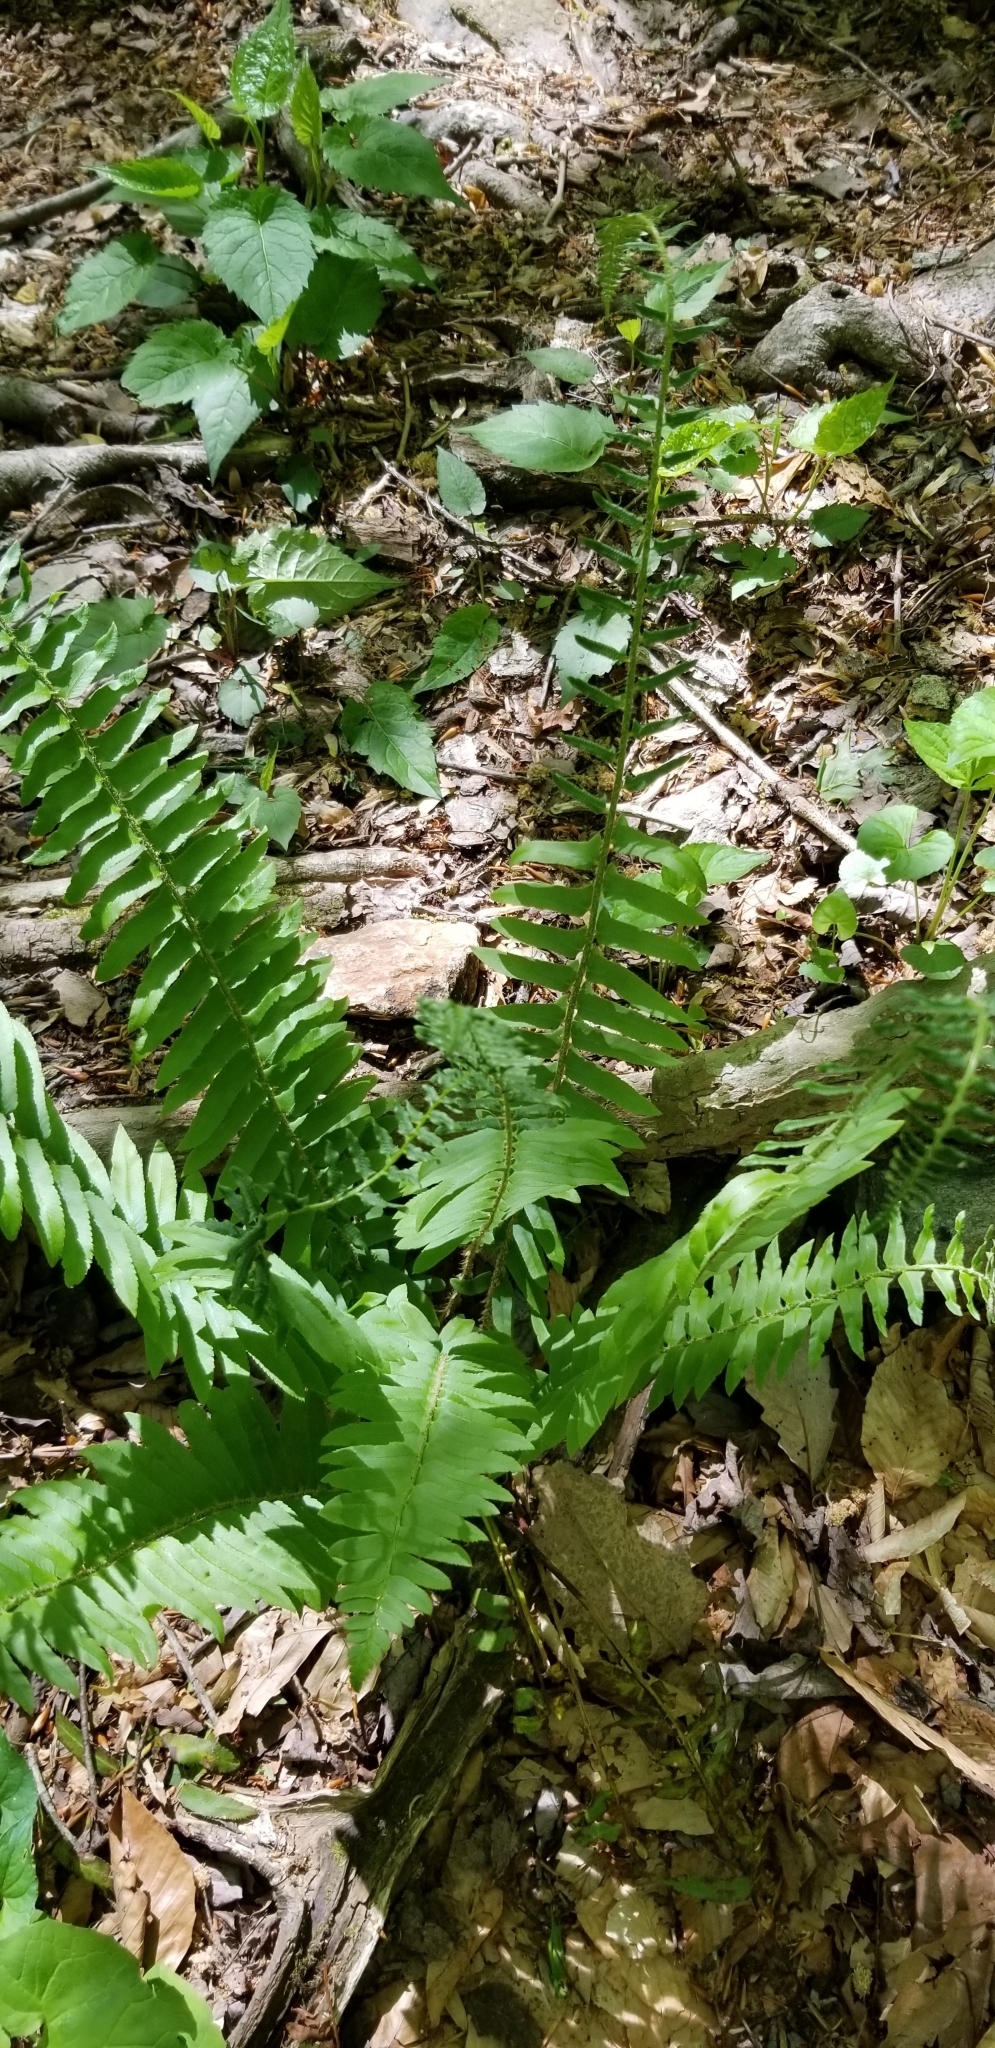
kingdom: Plantae
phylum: Tracheophyta
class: Polypodiopsida
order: Polypodiales
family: Dryopteridaceae
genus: Polystichum
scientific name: Polystichum acrostichoides
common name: Christmas fern
